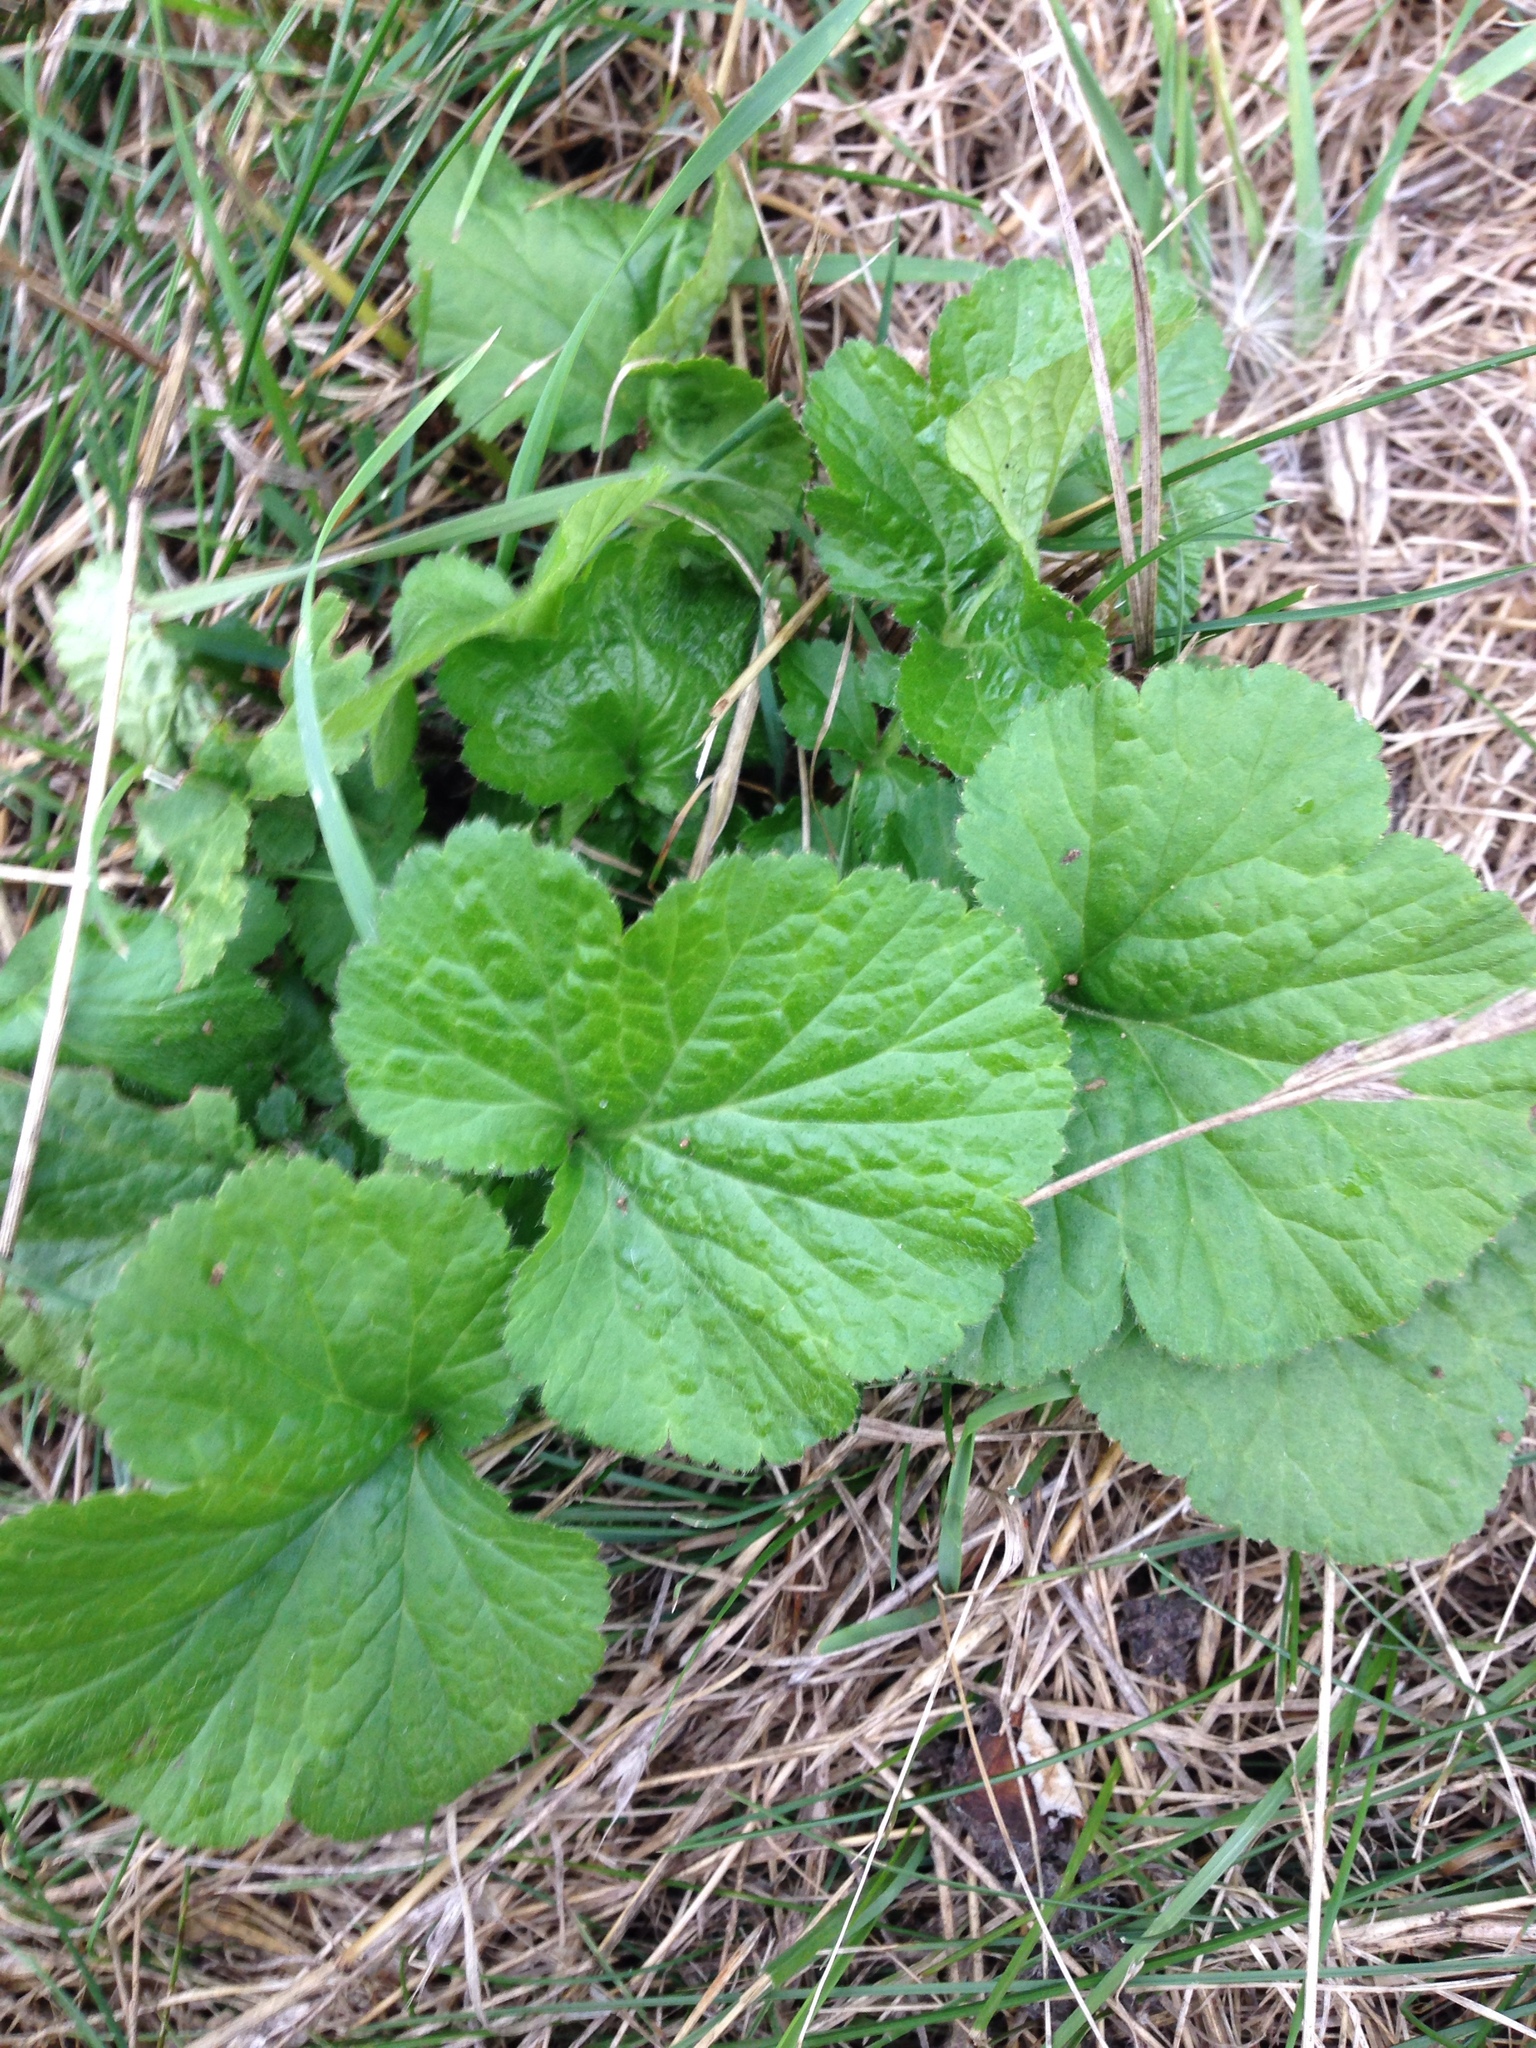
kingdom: Plantae
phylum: Tracheophyta
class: Magnoliopsida
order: Rosales
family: Rosaceae
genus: Geum
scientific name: Geum urbanum
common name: Wood avens
